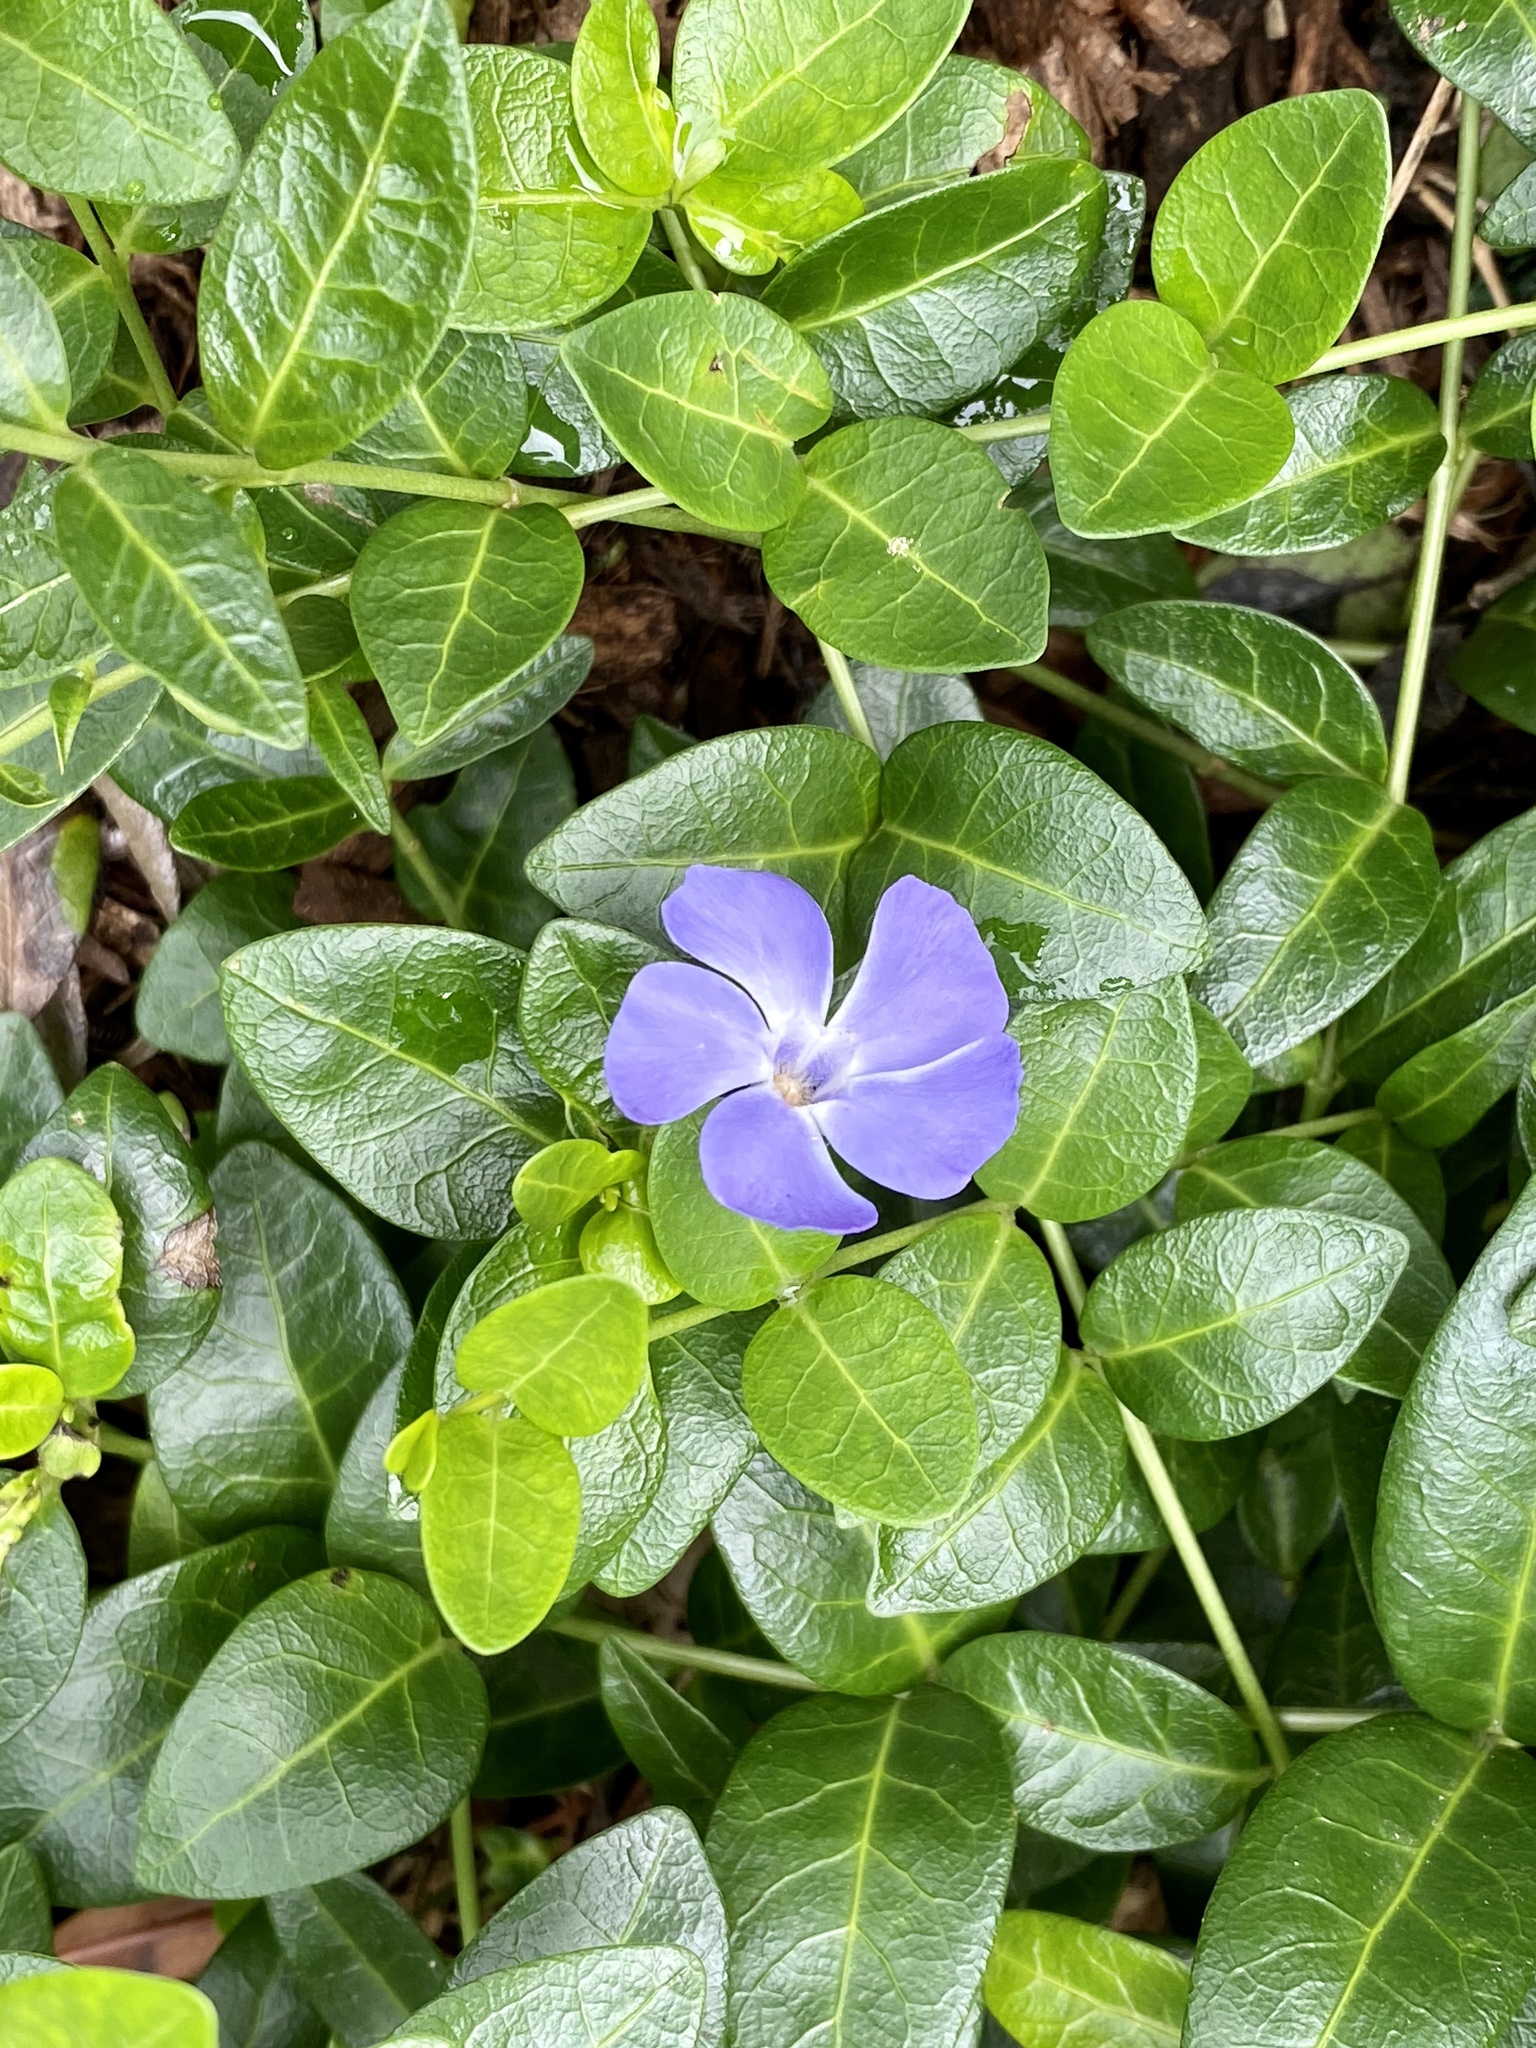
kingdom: Plantae
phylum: Tracheophyta
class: Magnoliopsida
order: Gentianales
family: Apocynaceae
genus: Vinca
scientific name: Vinca major
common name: Greater periwinkle
